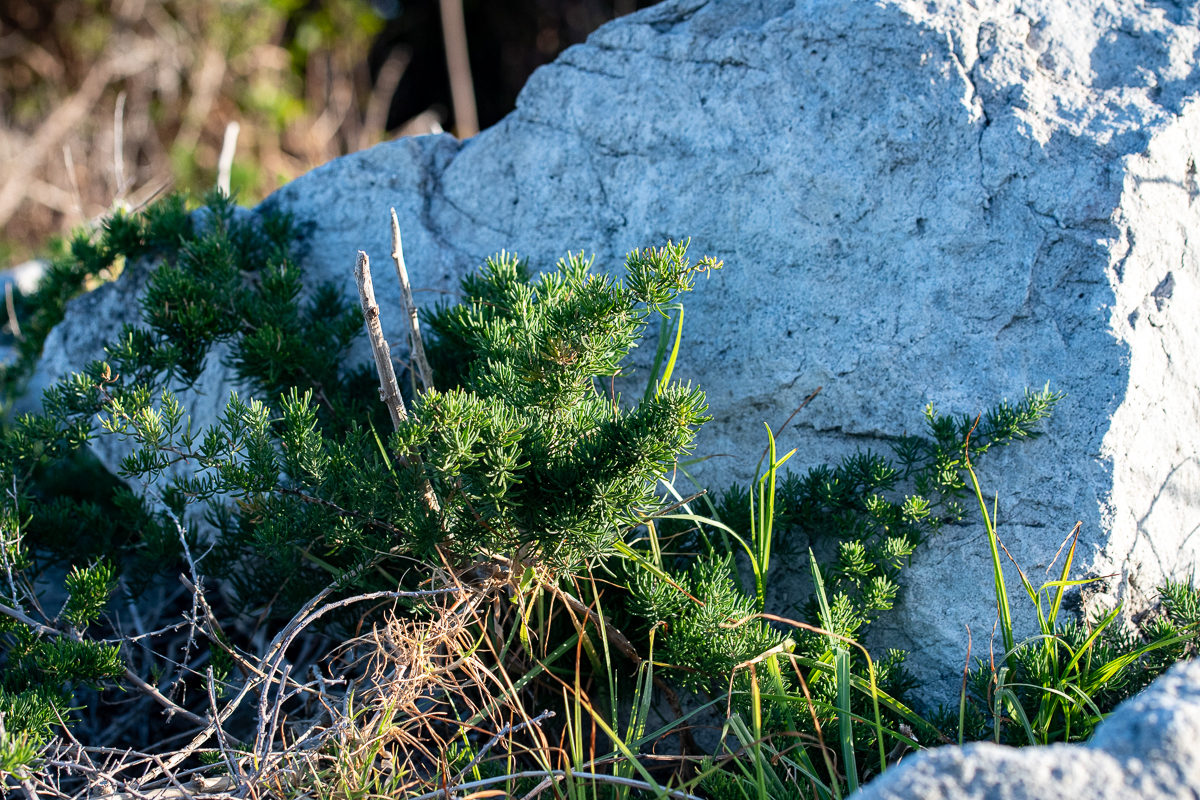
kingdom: Plantae
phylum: Tracheophyta
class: Liliopsida
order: Asparagales
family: Asparagaceae
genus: Asparagus
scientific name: Asparagus capensis
